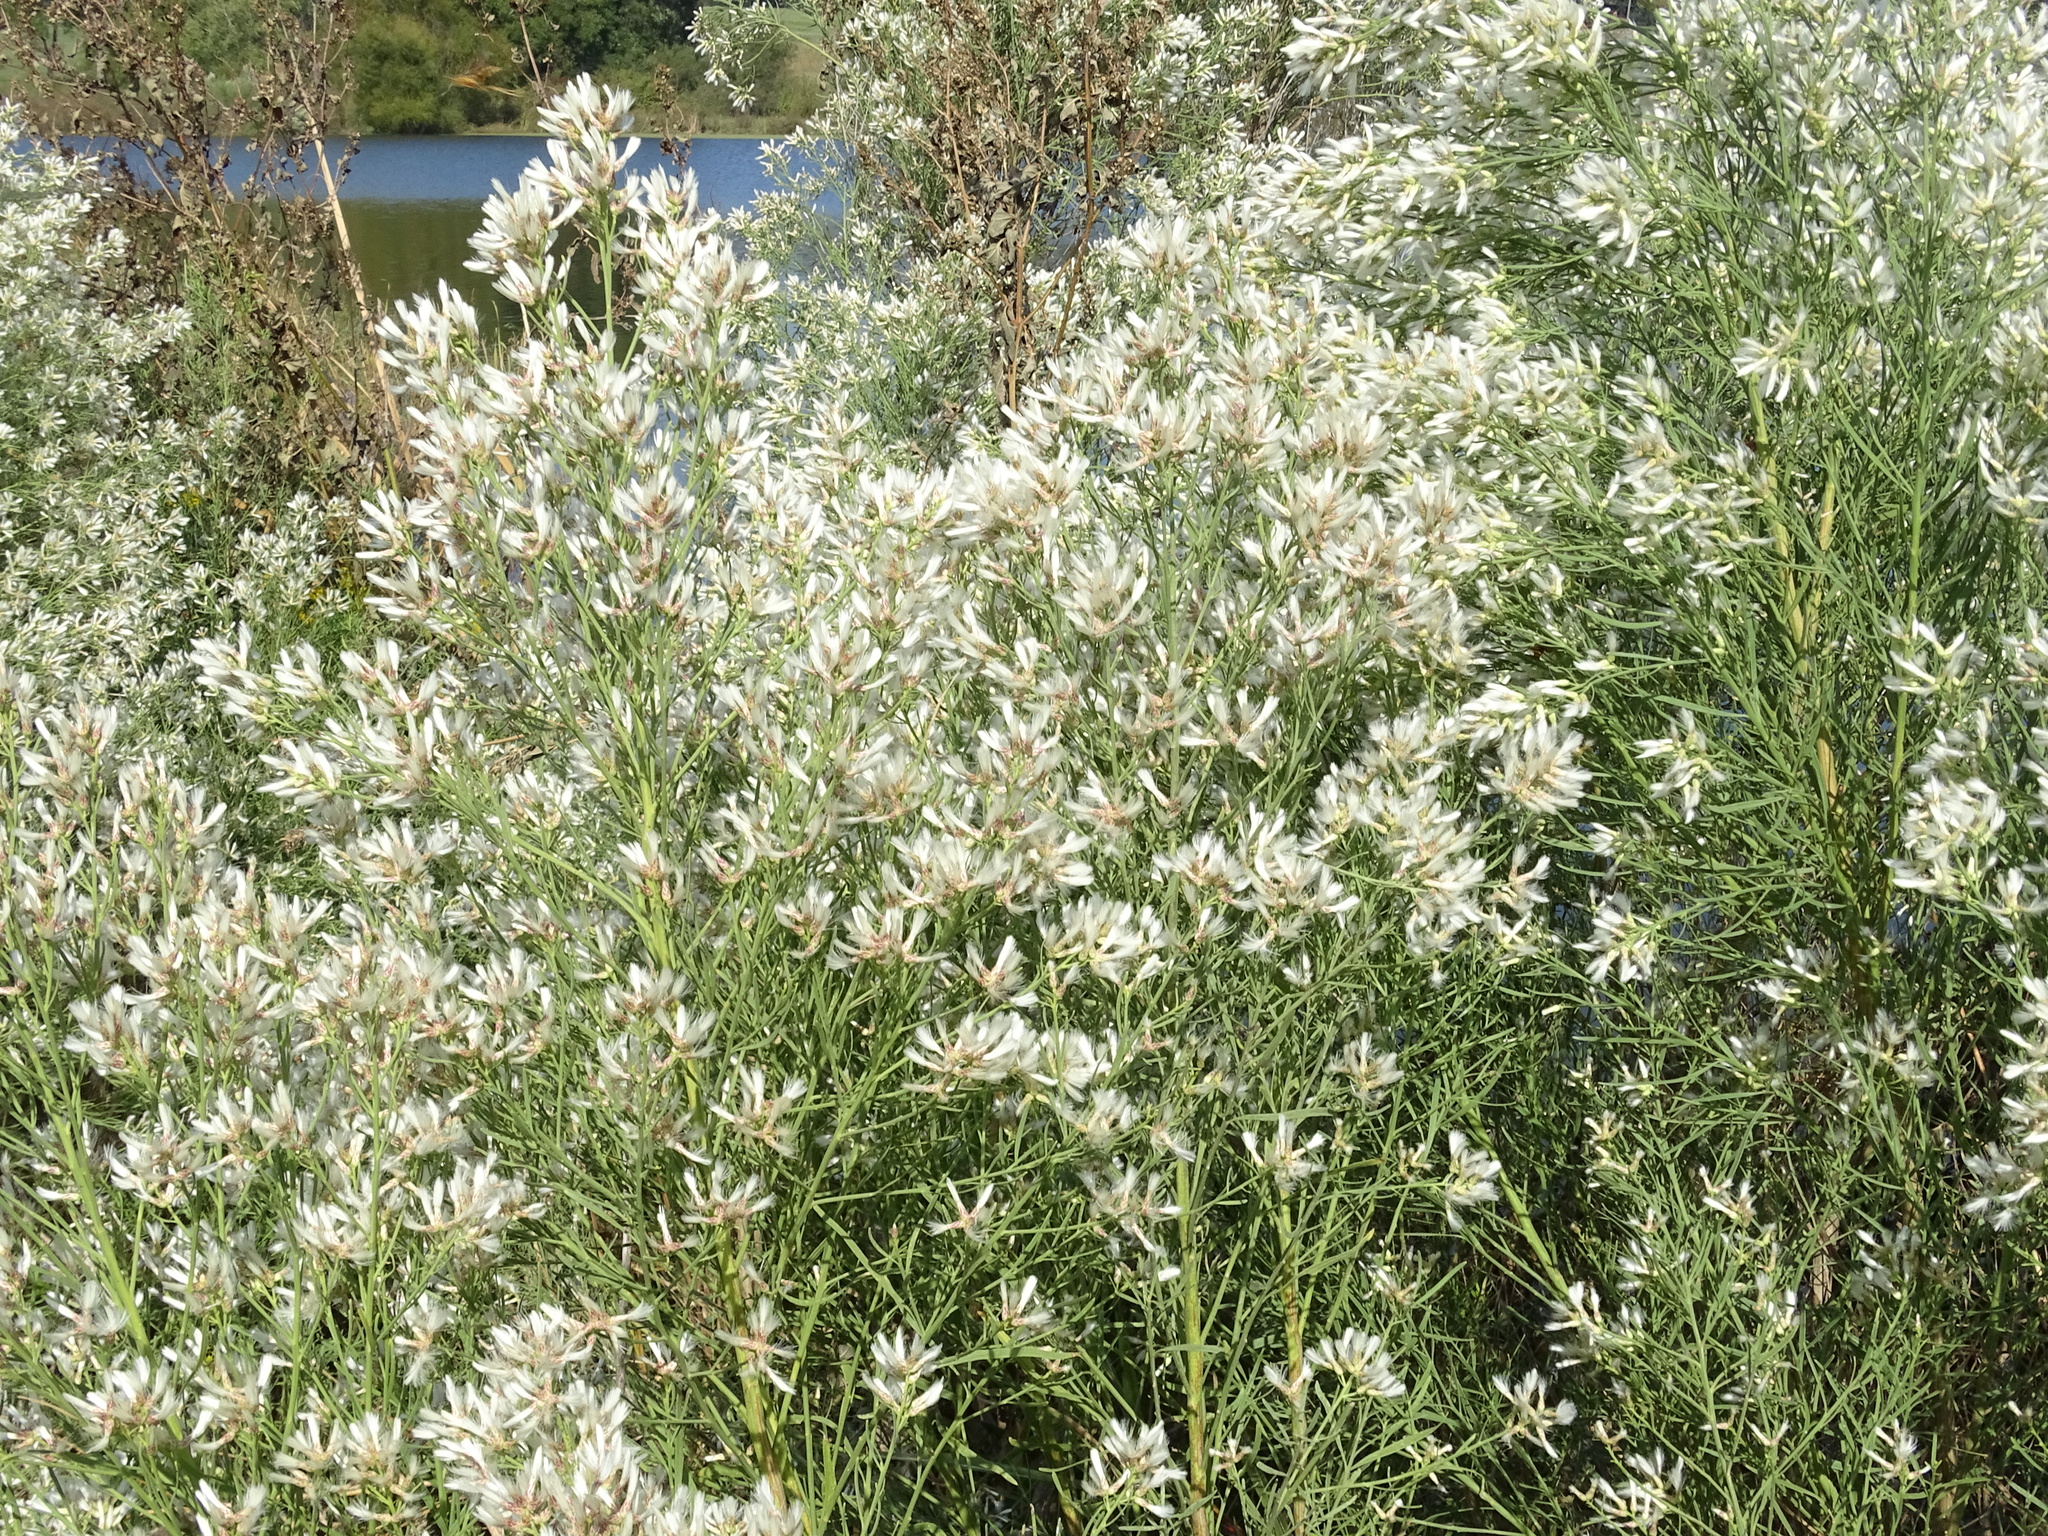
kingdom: Plantae
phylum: Tracheophyta
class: Magnoliopsida
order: Asterales
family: Asteraceae
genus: Baccharis
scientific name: Baccharis neglecta
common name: Roosevelt-weed
